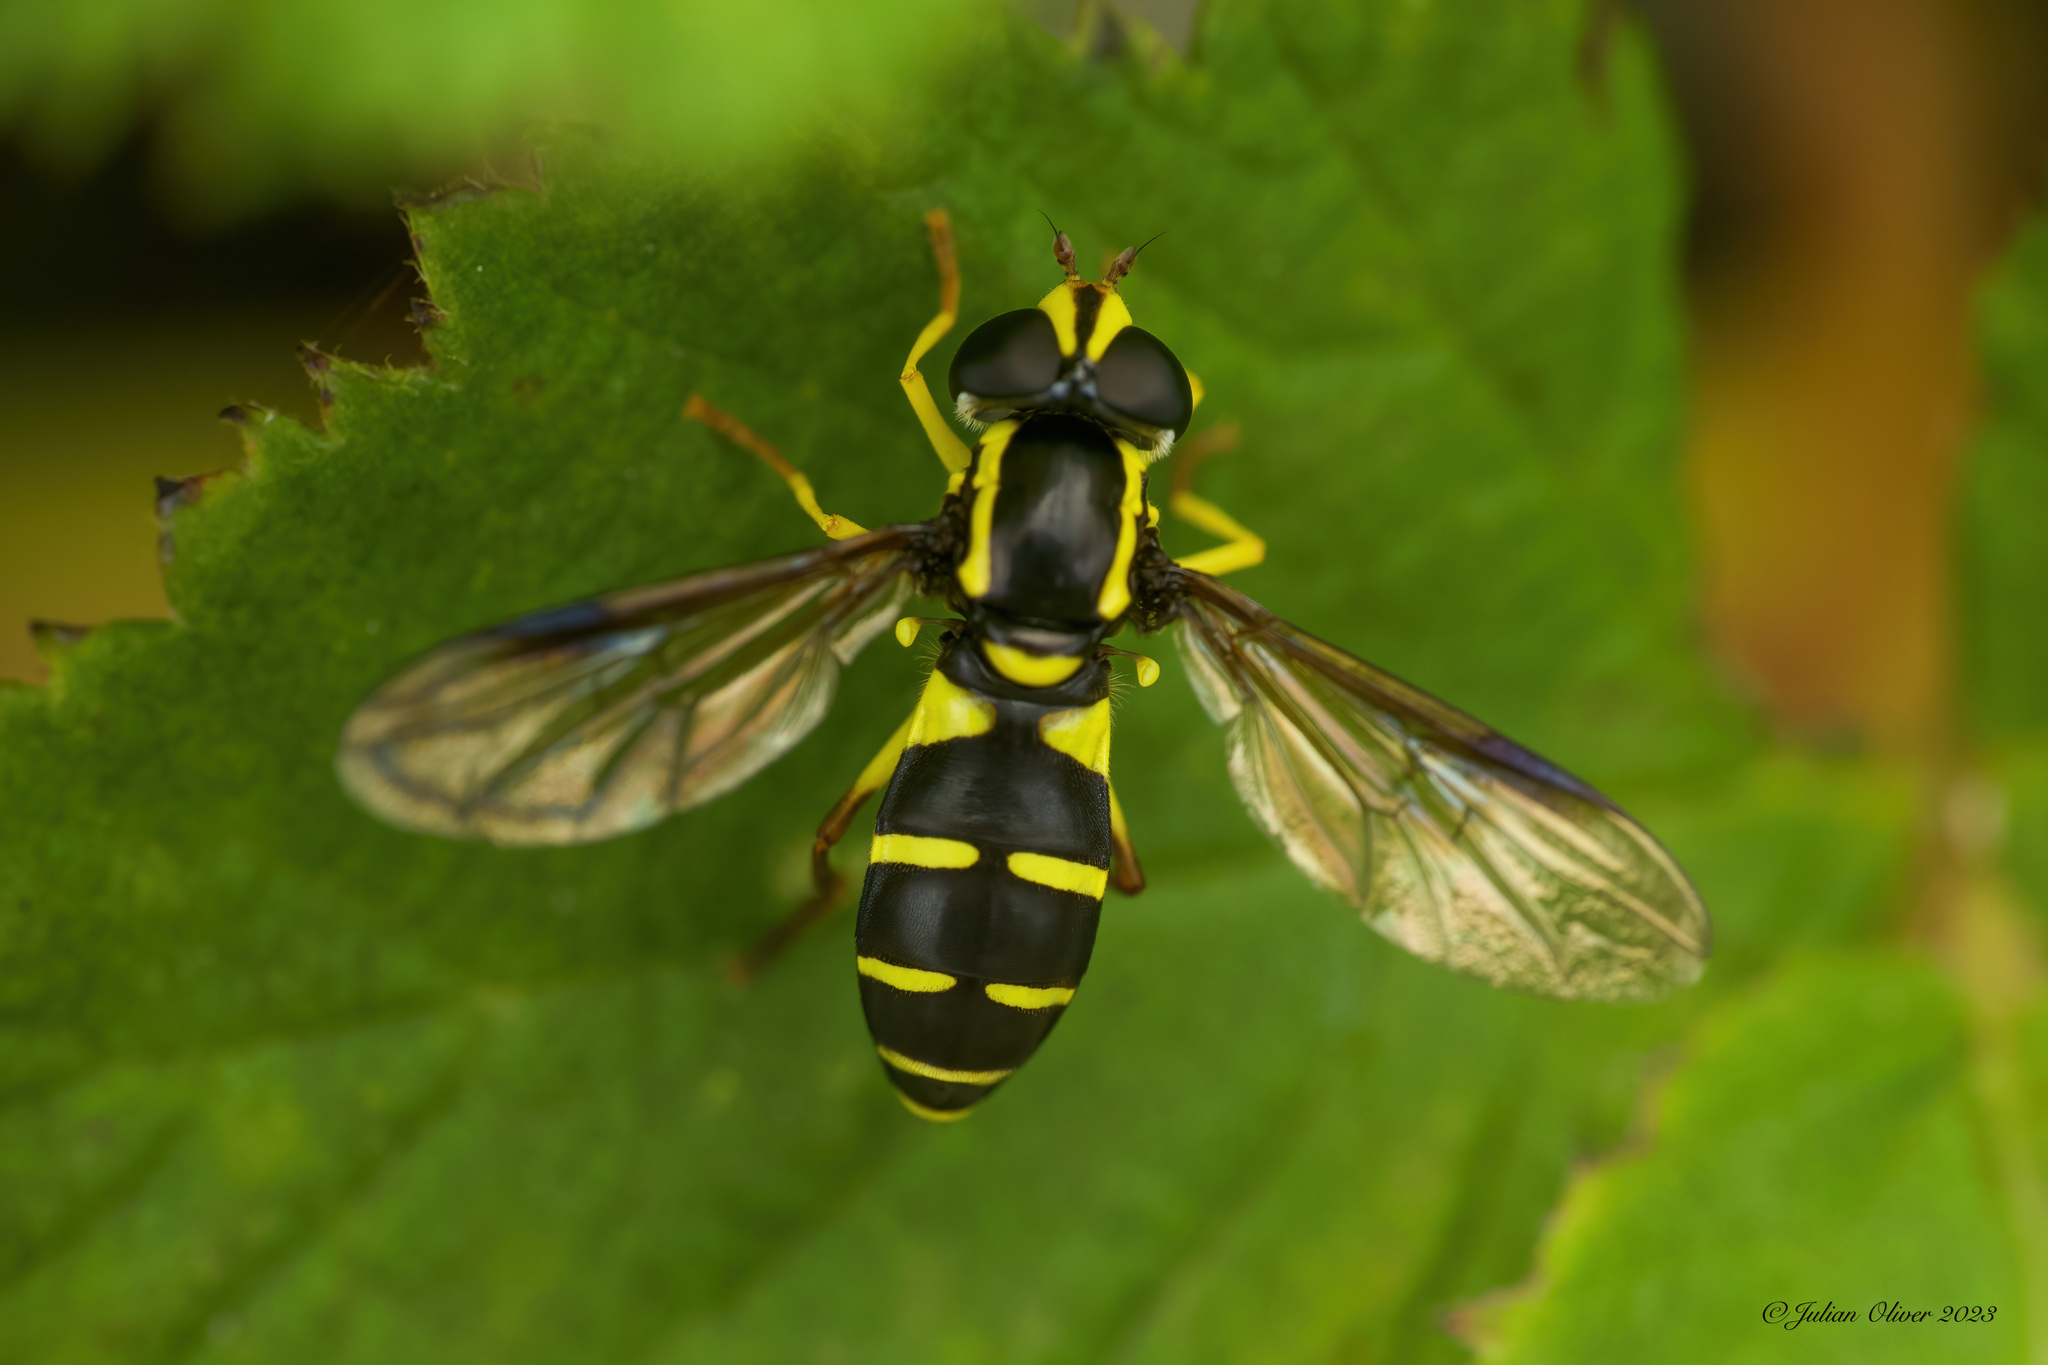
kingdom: Animalia
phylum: Arthropoda
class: Insecta
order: Diptera
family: Syrphidae
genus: Philhelius
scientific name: Philhelius pedissequum
